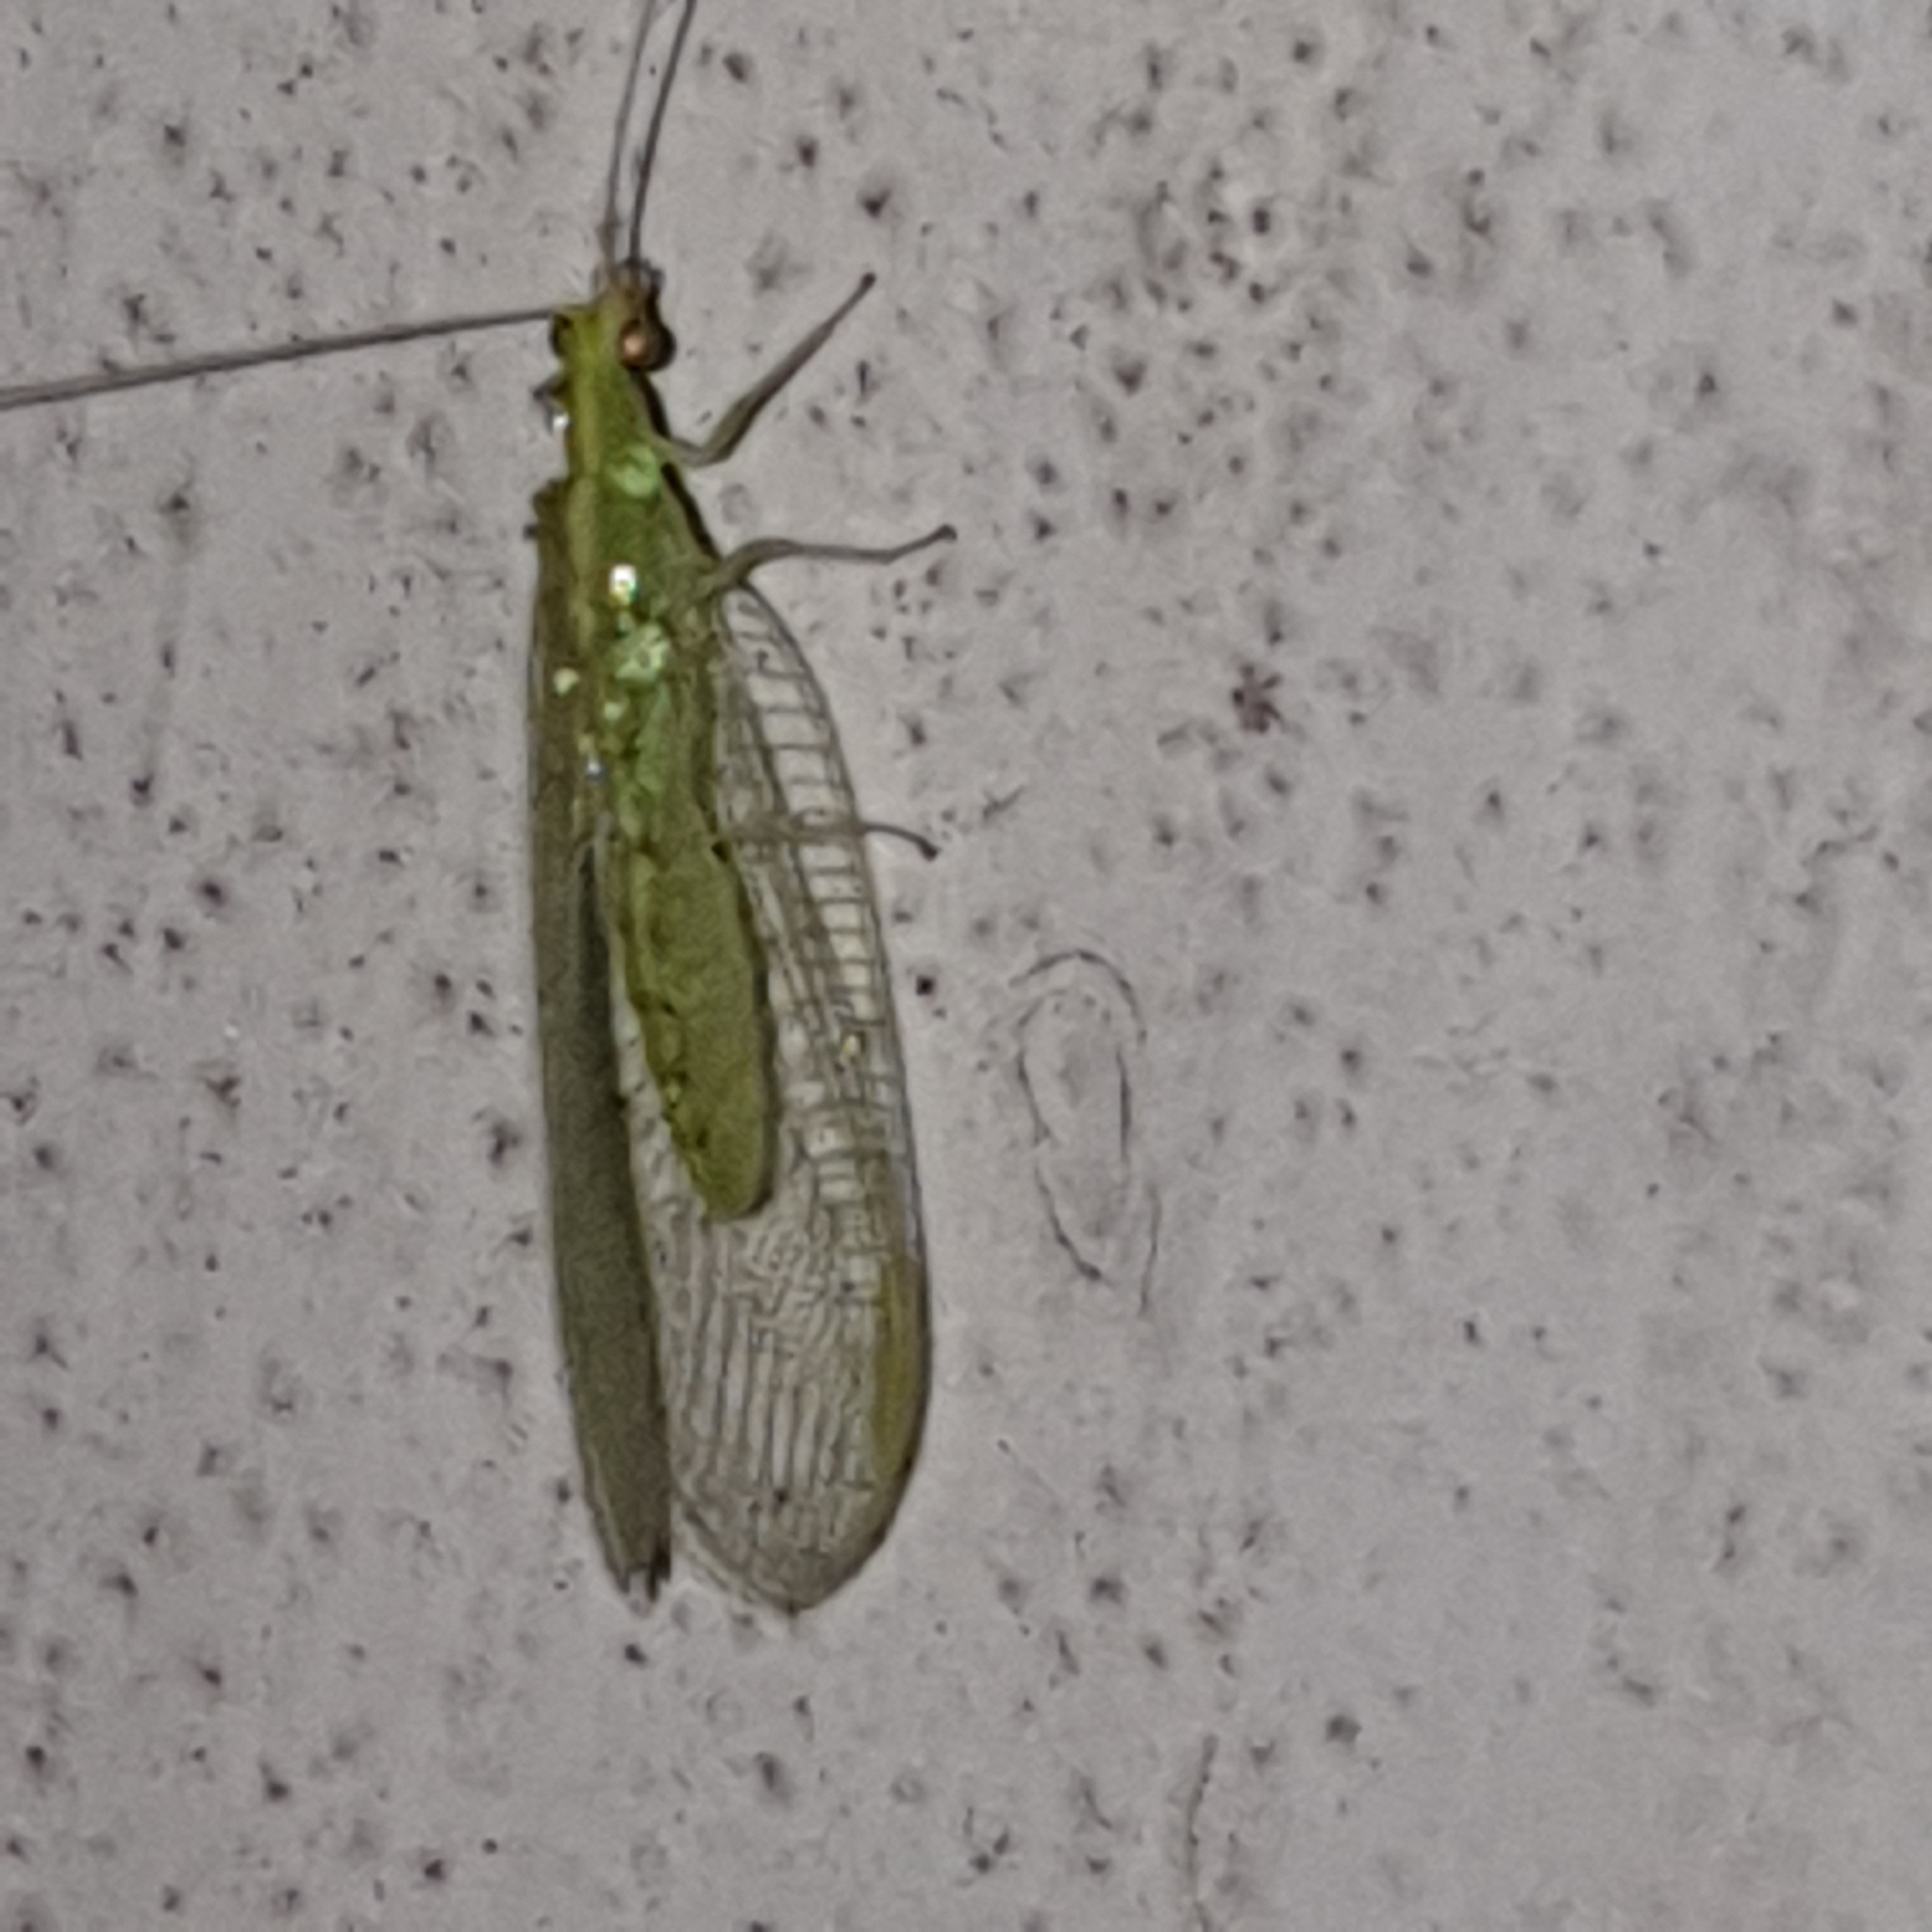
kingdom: Animalia
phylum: Arthropoda
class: Insecta
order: Neuroptera
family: Chrysopidae
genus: Chrysoperla
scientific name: Chrysoperla
